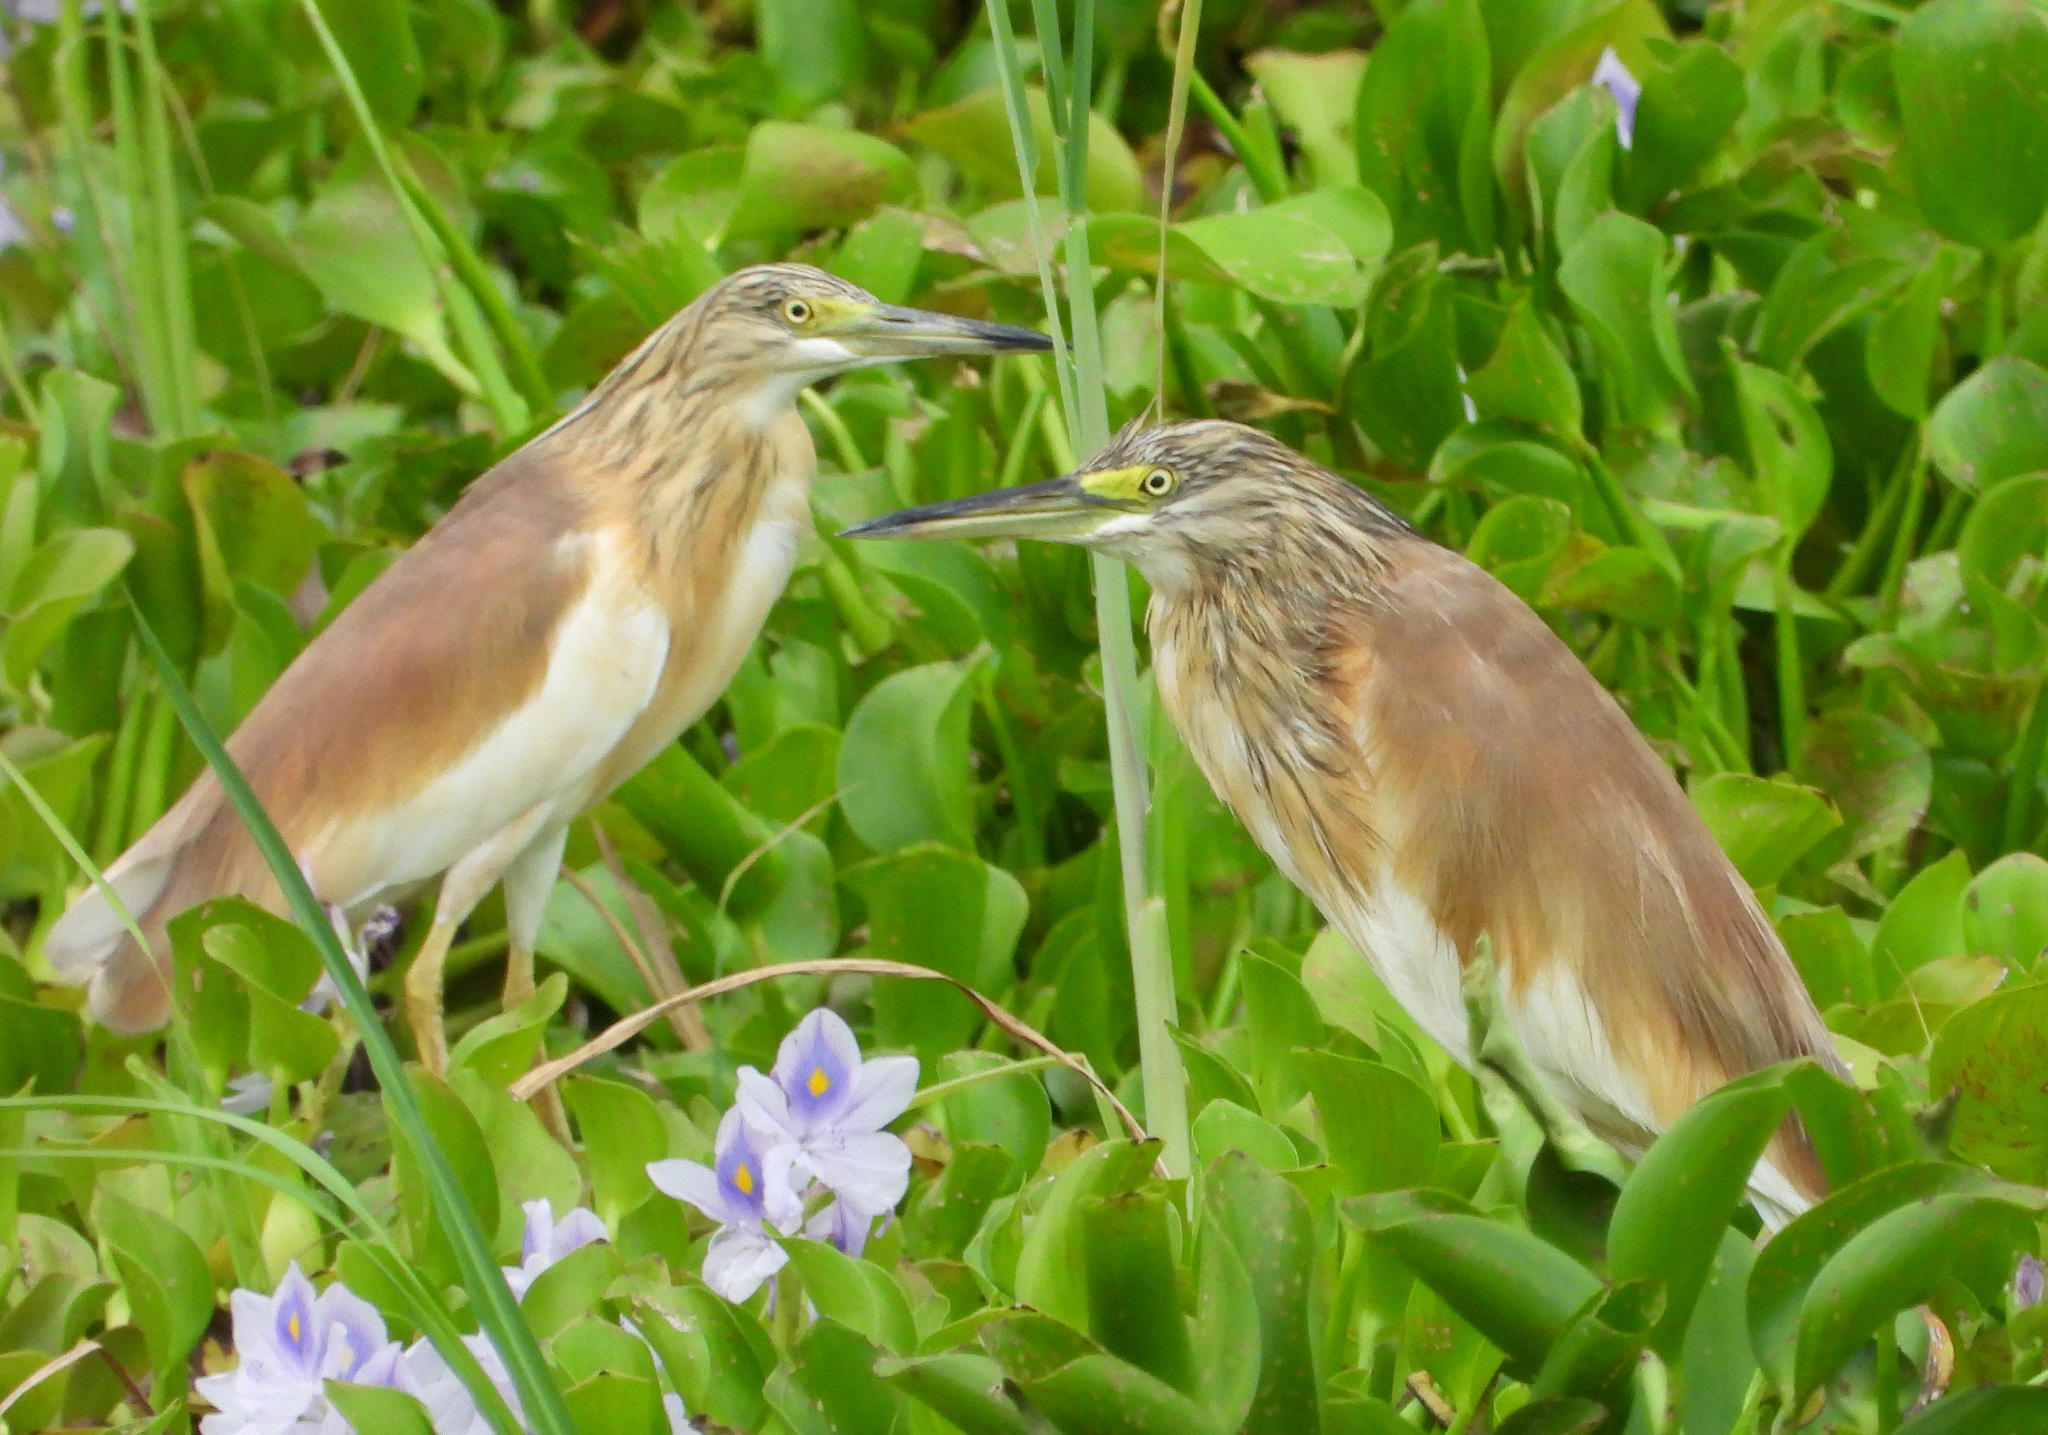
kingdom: Animalia
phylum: Chordata
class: Aves
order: Pelecaniformes
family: Ardeidae
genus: Ardeola
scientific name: Ardeola ralloides
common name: Squacco heron
